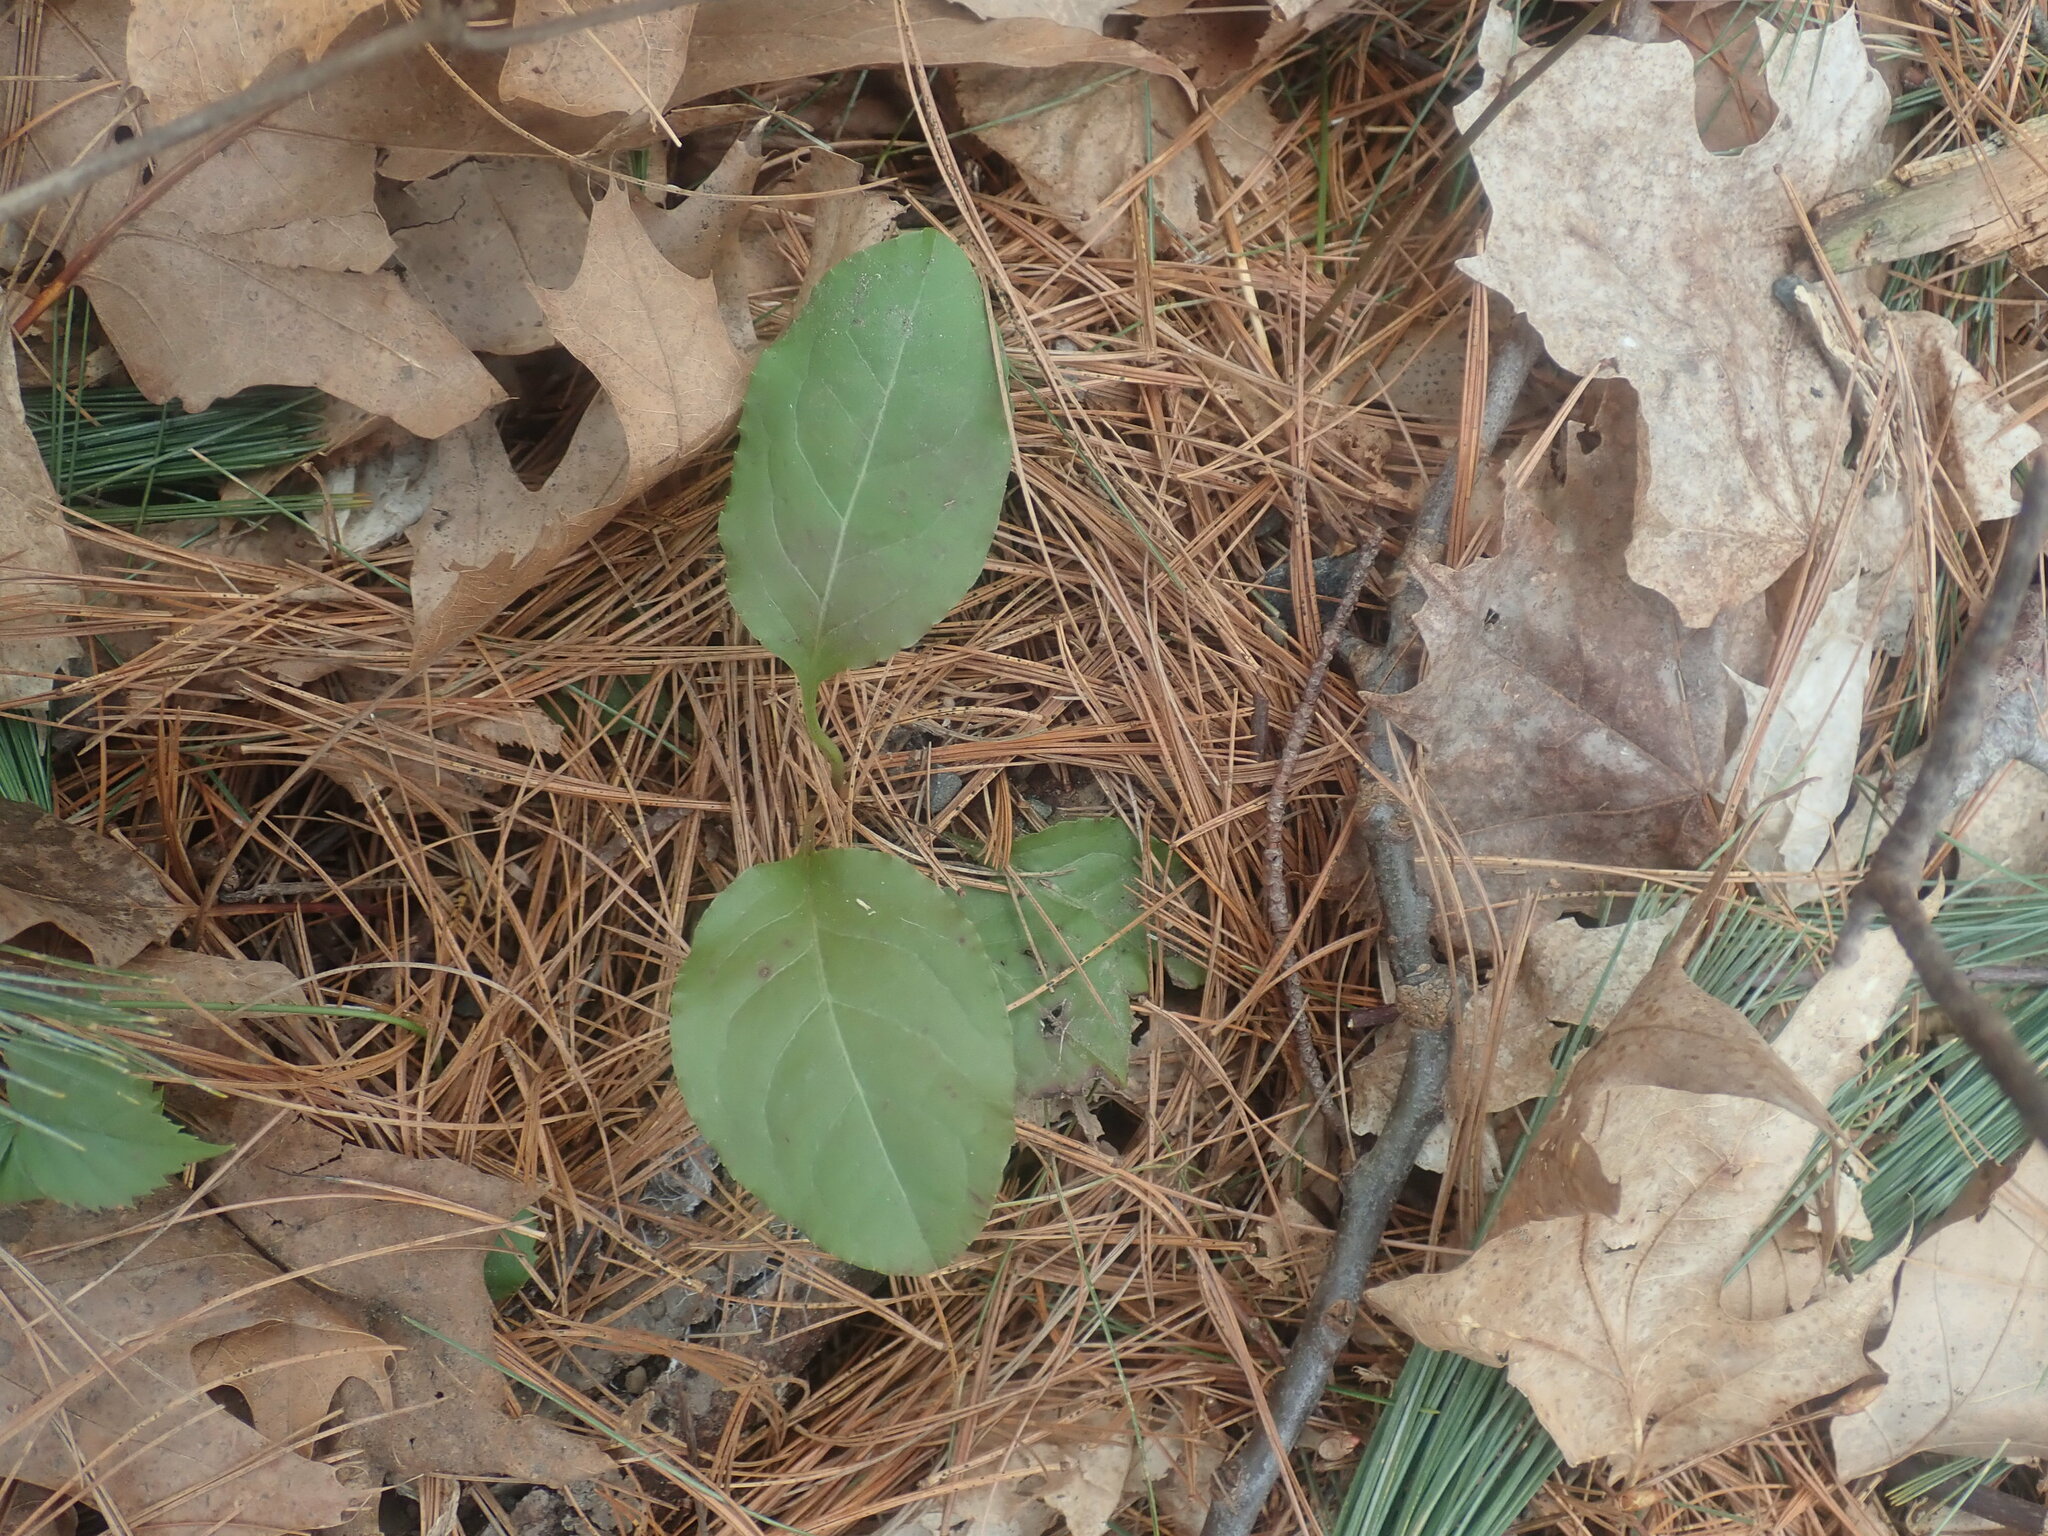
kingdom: Plantae
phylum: Tracheophyta
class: Magnoliopsida
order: Ericales
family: Ericaceae
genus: Pyrola
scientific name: Pyrola elliptica
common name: Shinleaf
